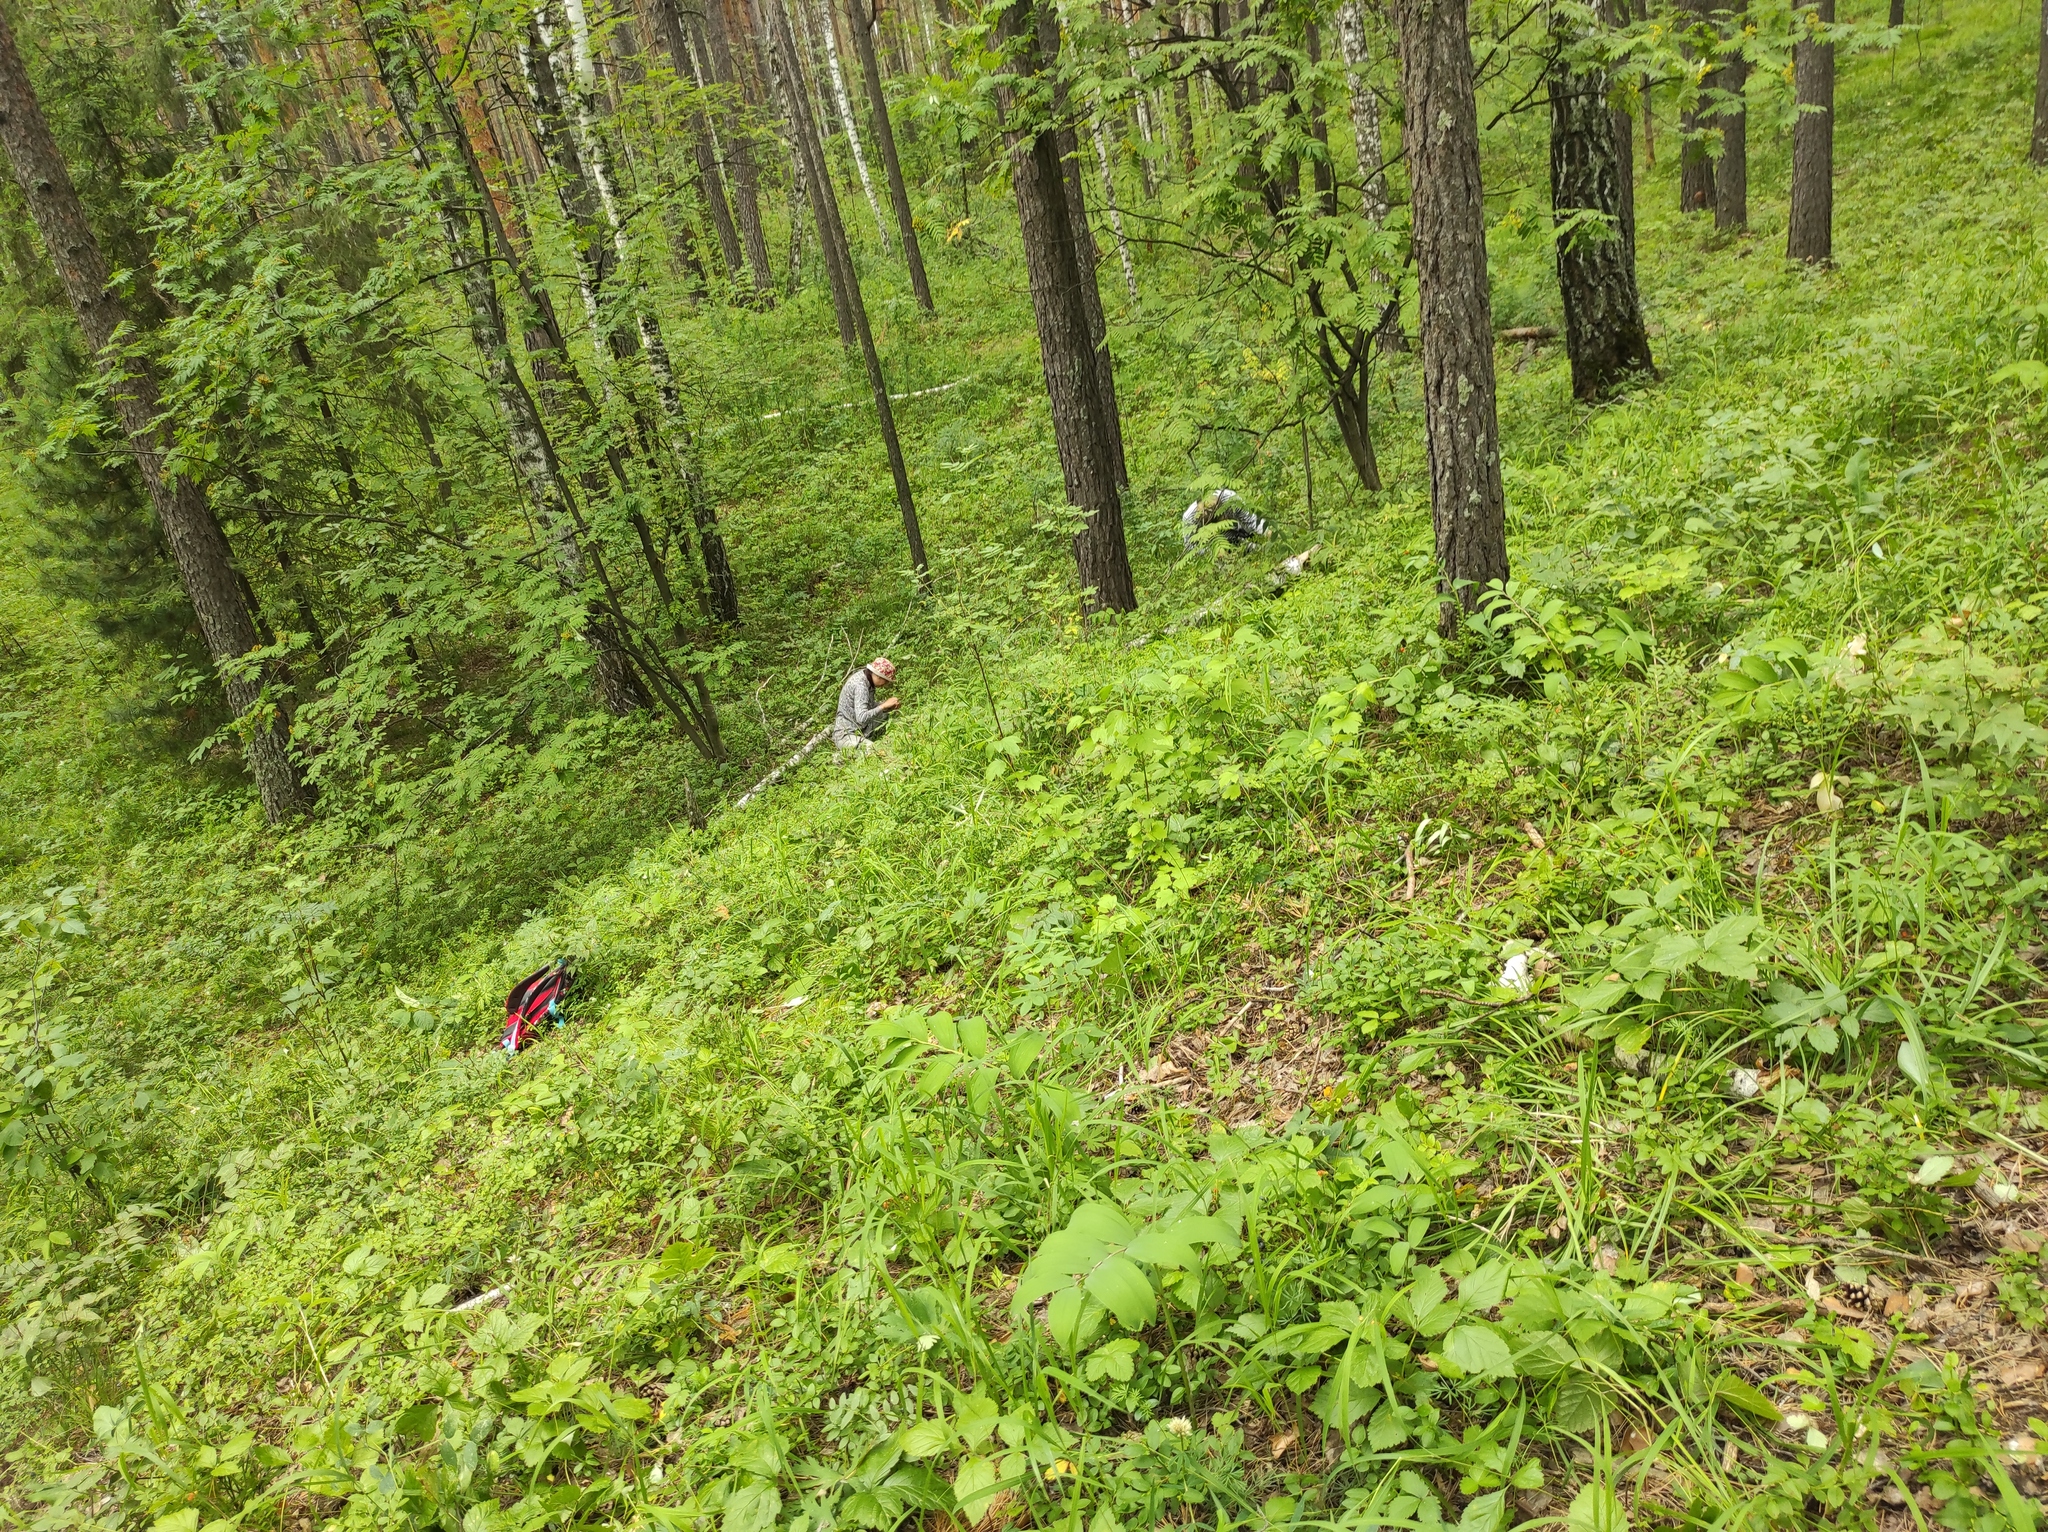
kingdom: Plantae
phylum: Tracheophyta
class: Pinopsida
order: Pinales
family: Pinaceae
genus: Pinus
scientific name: Pinus sylvestris
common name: Scots pine
